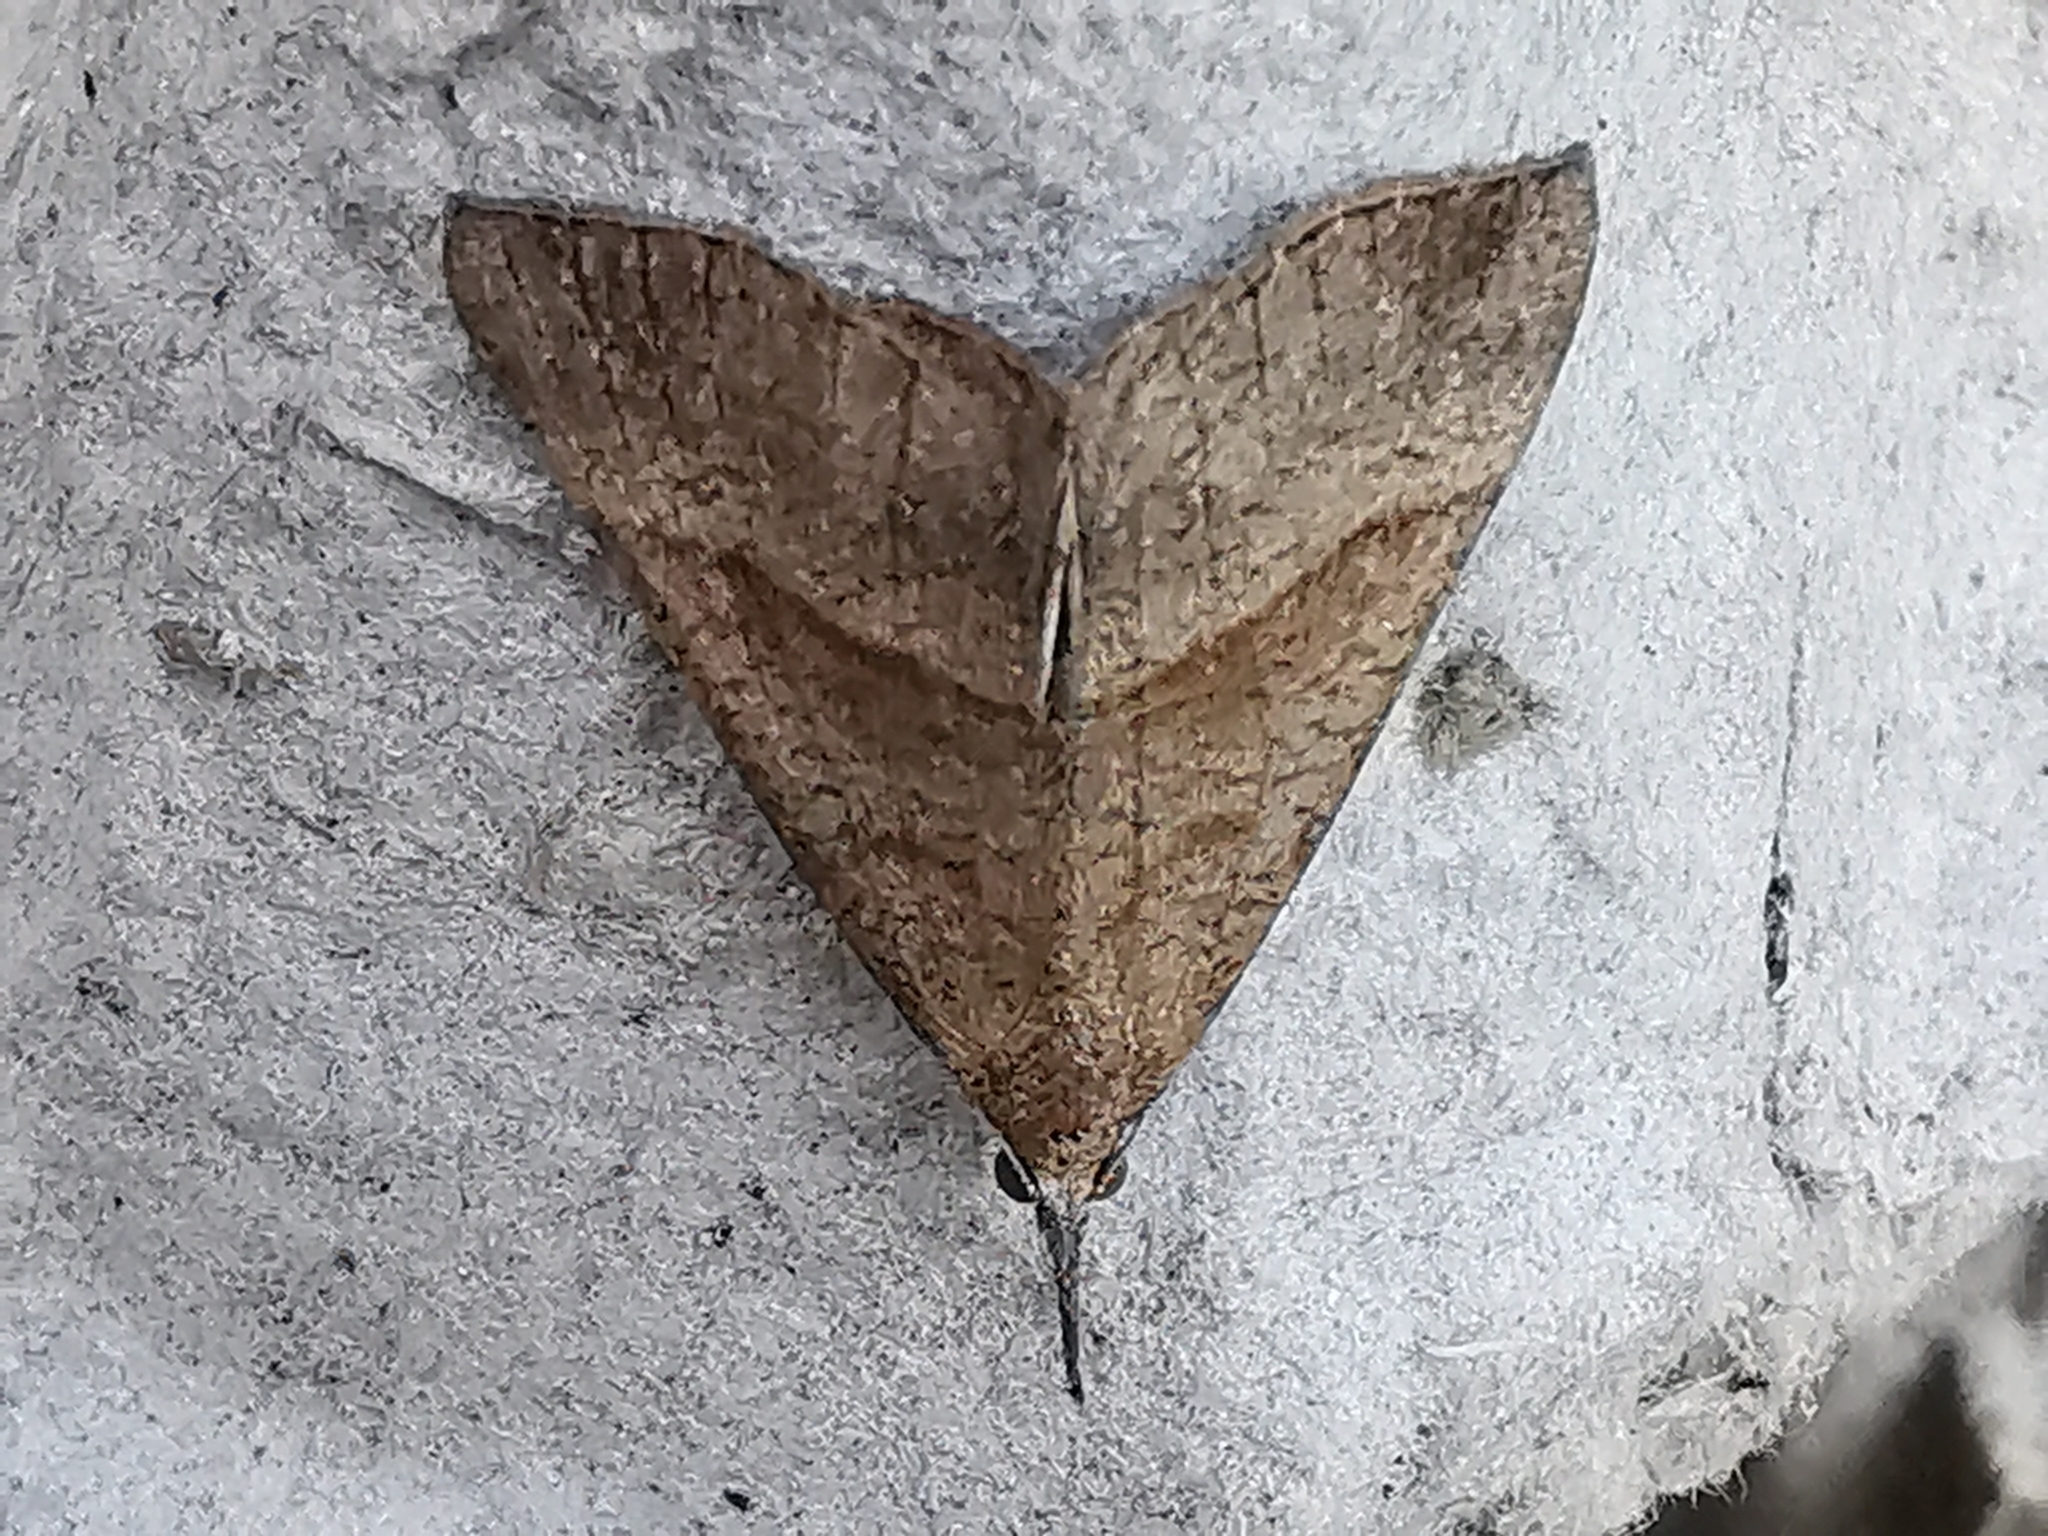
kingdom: Animalia
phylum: Arthropoda
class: Insecta
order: Lepidoptera
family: Erebidae
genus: Hypena
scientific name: Hypena proboscidalis
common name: Snout
